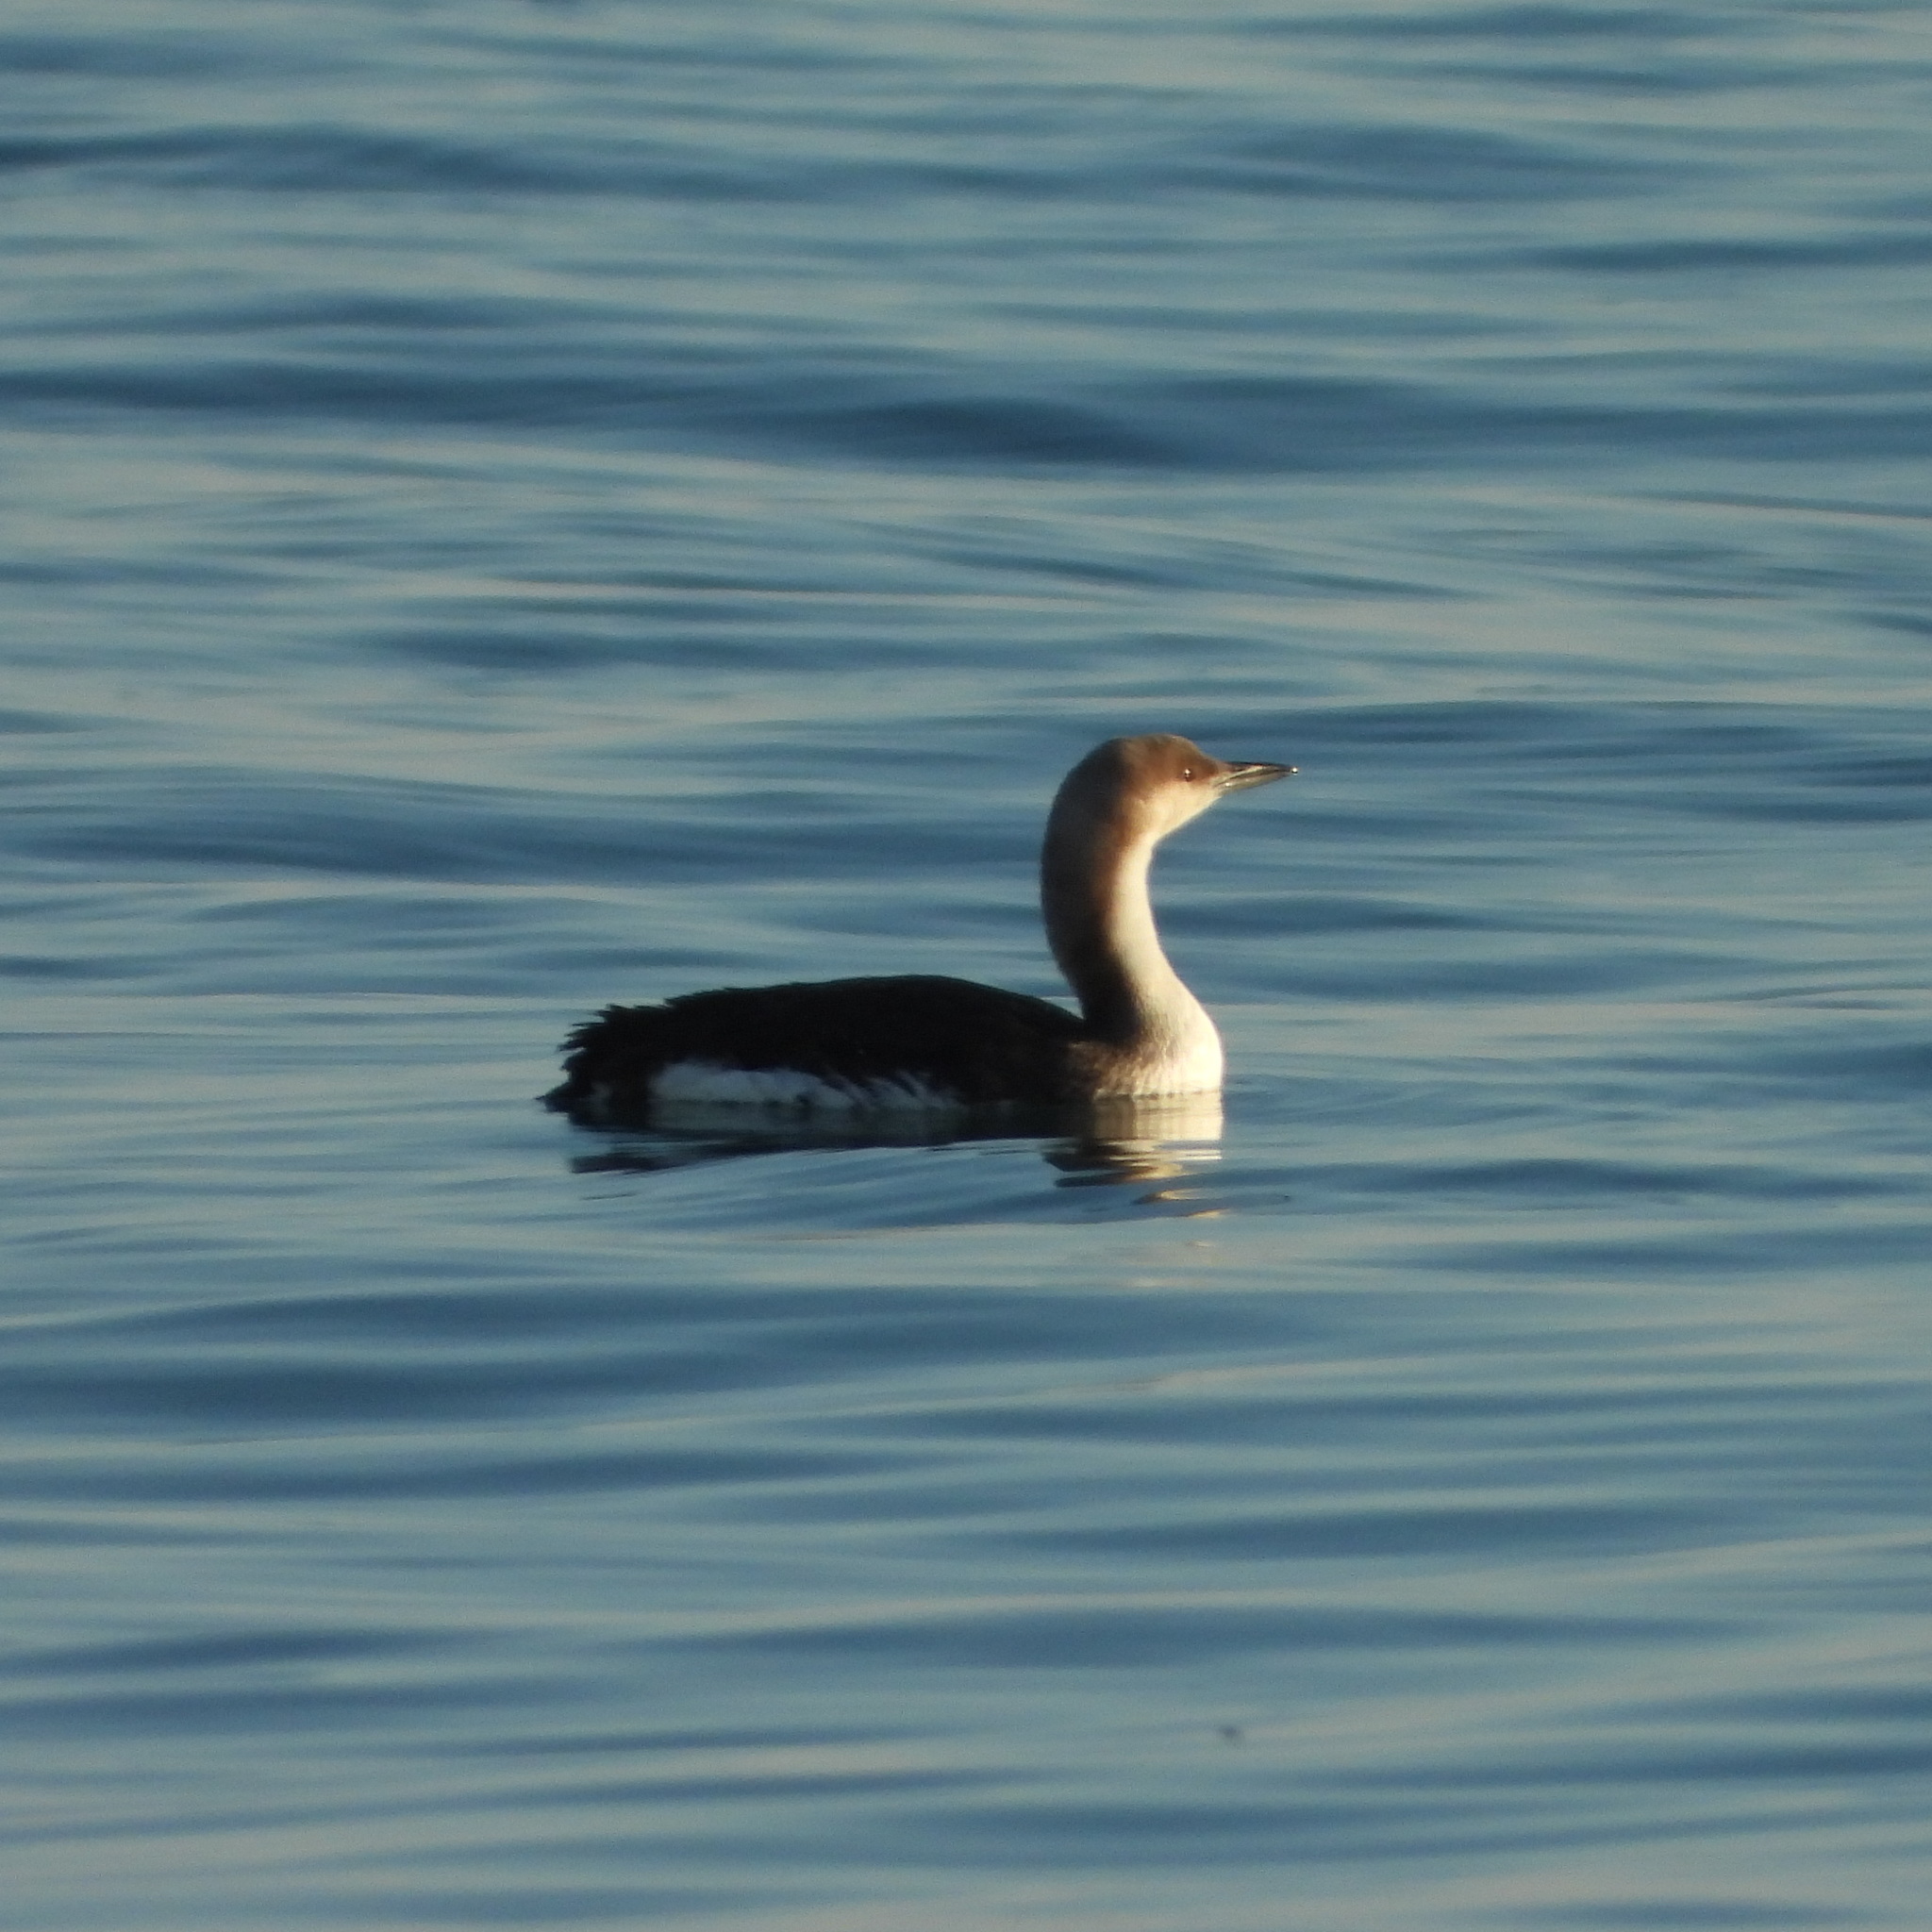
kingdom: Animalia
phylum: Chordata
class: Aves
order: Gaviiformes
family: Gaviidae
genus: Gavia
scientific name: Gavia arctica
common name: Black-throated loon
